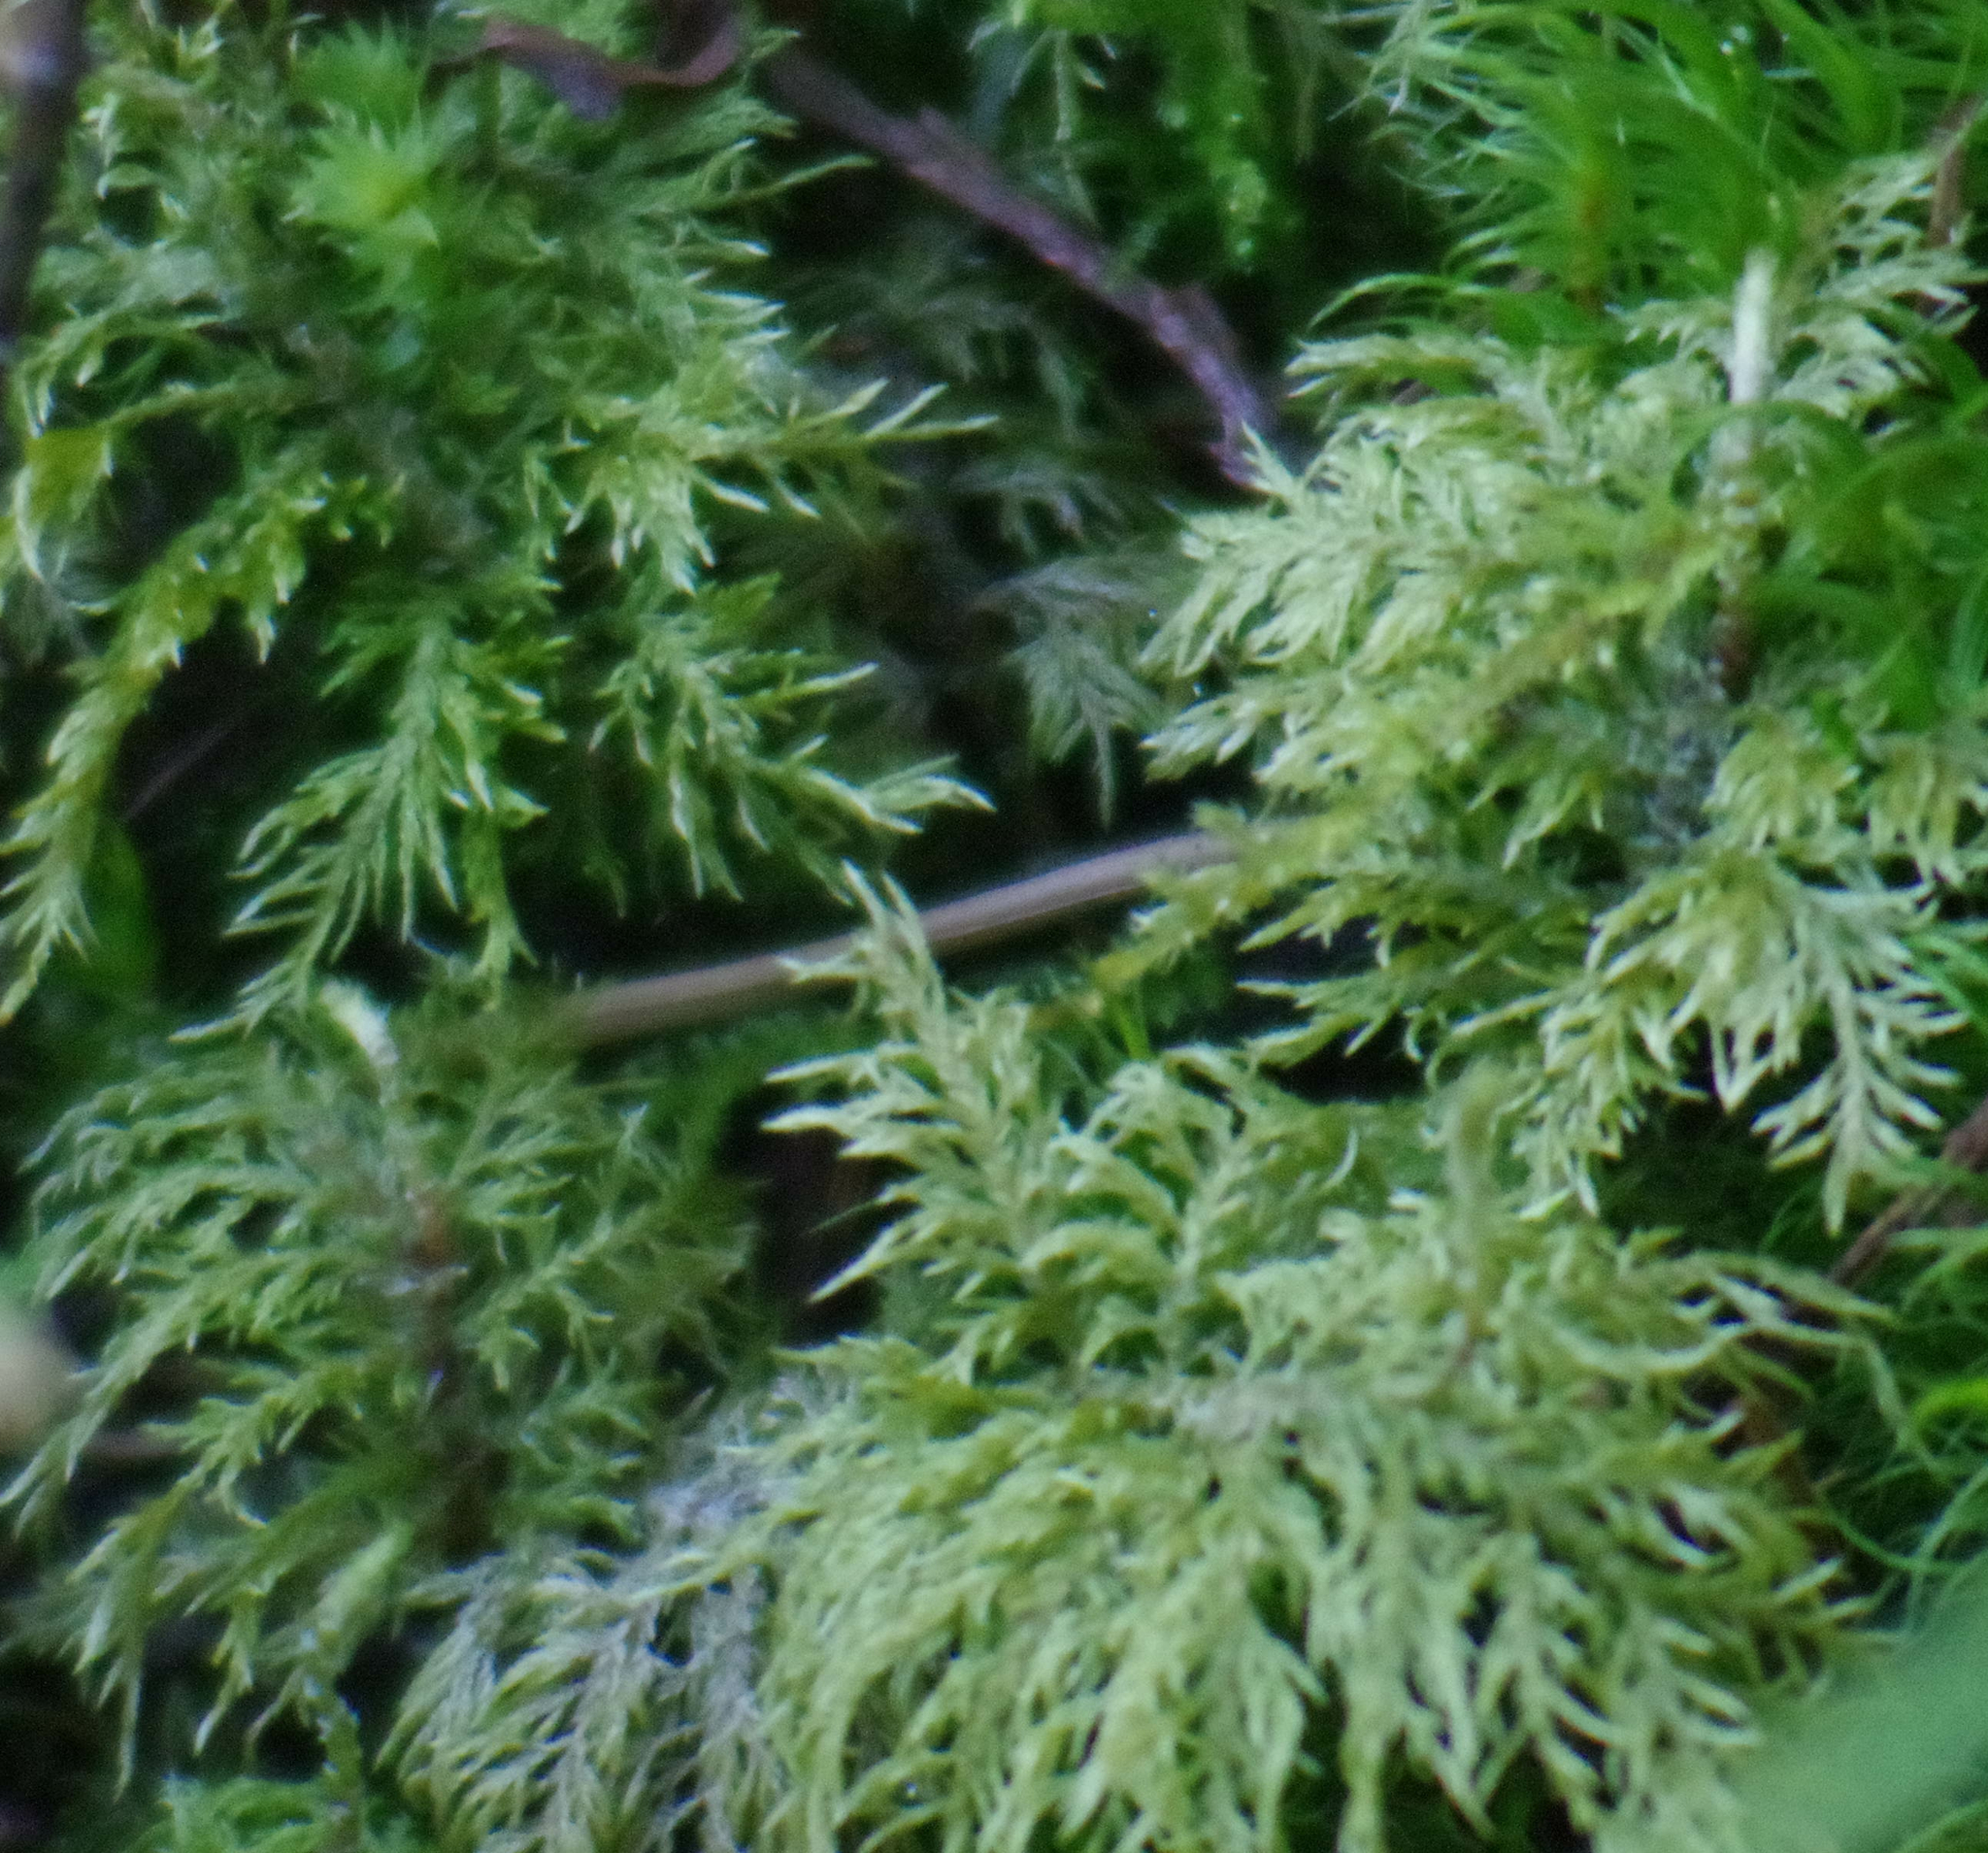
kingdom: Plantae
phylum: Bryophyta
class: Bryopsida
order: Hypnales
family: Hylocomiaceae
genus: Hylocomium
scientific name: Hylocomium splendens
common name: Stairstep moss
